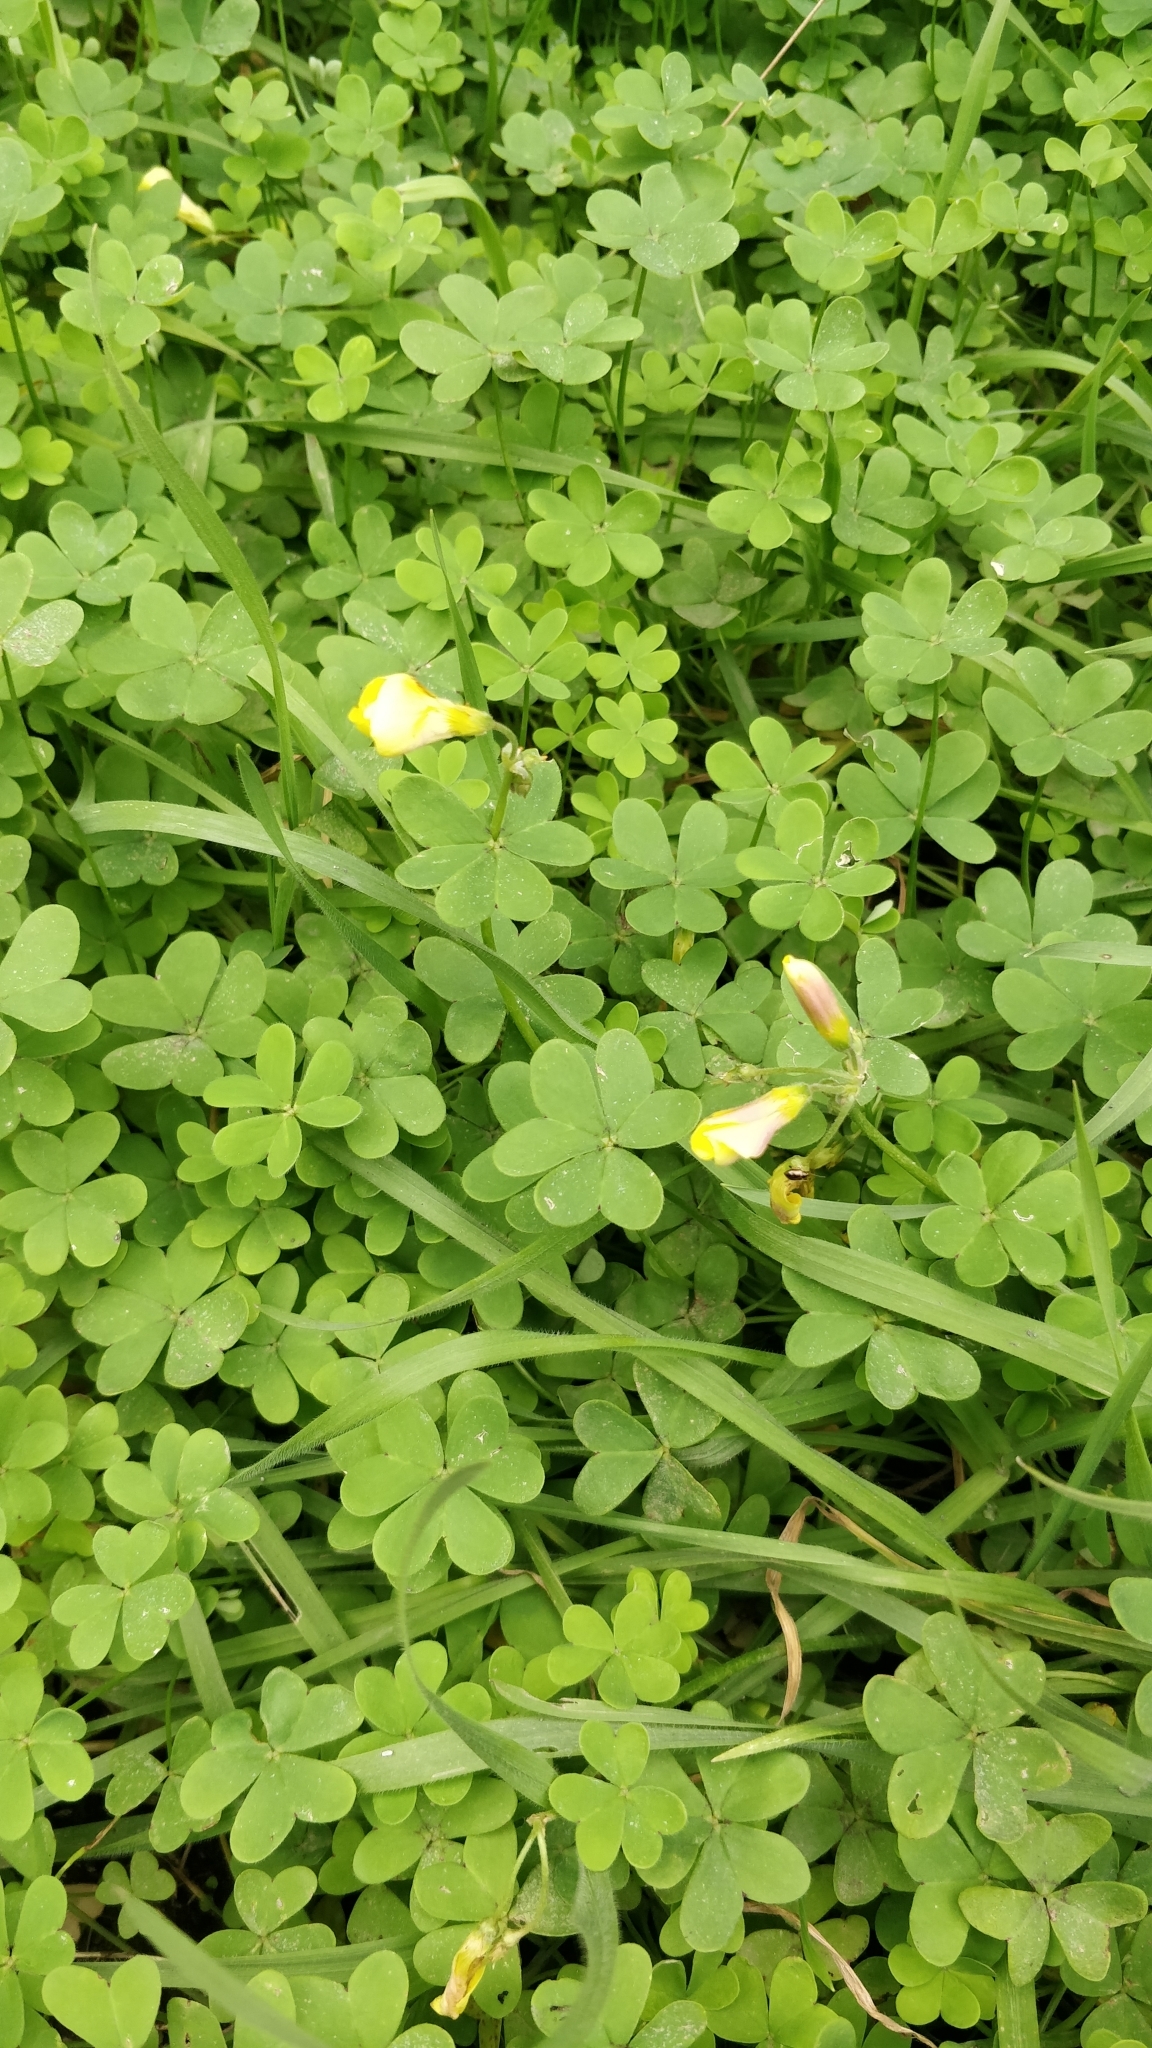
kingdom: Plantae
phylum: Tracheophyta
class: Magnoliopsida
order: Oxalidales
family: Oxalidaceae
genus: Oxalis
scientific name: Oxalis pes-caprae
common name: Bermuda-buttercup
